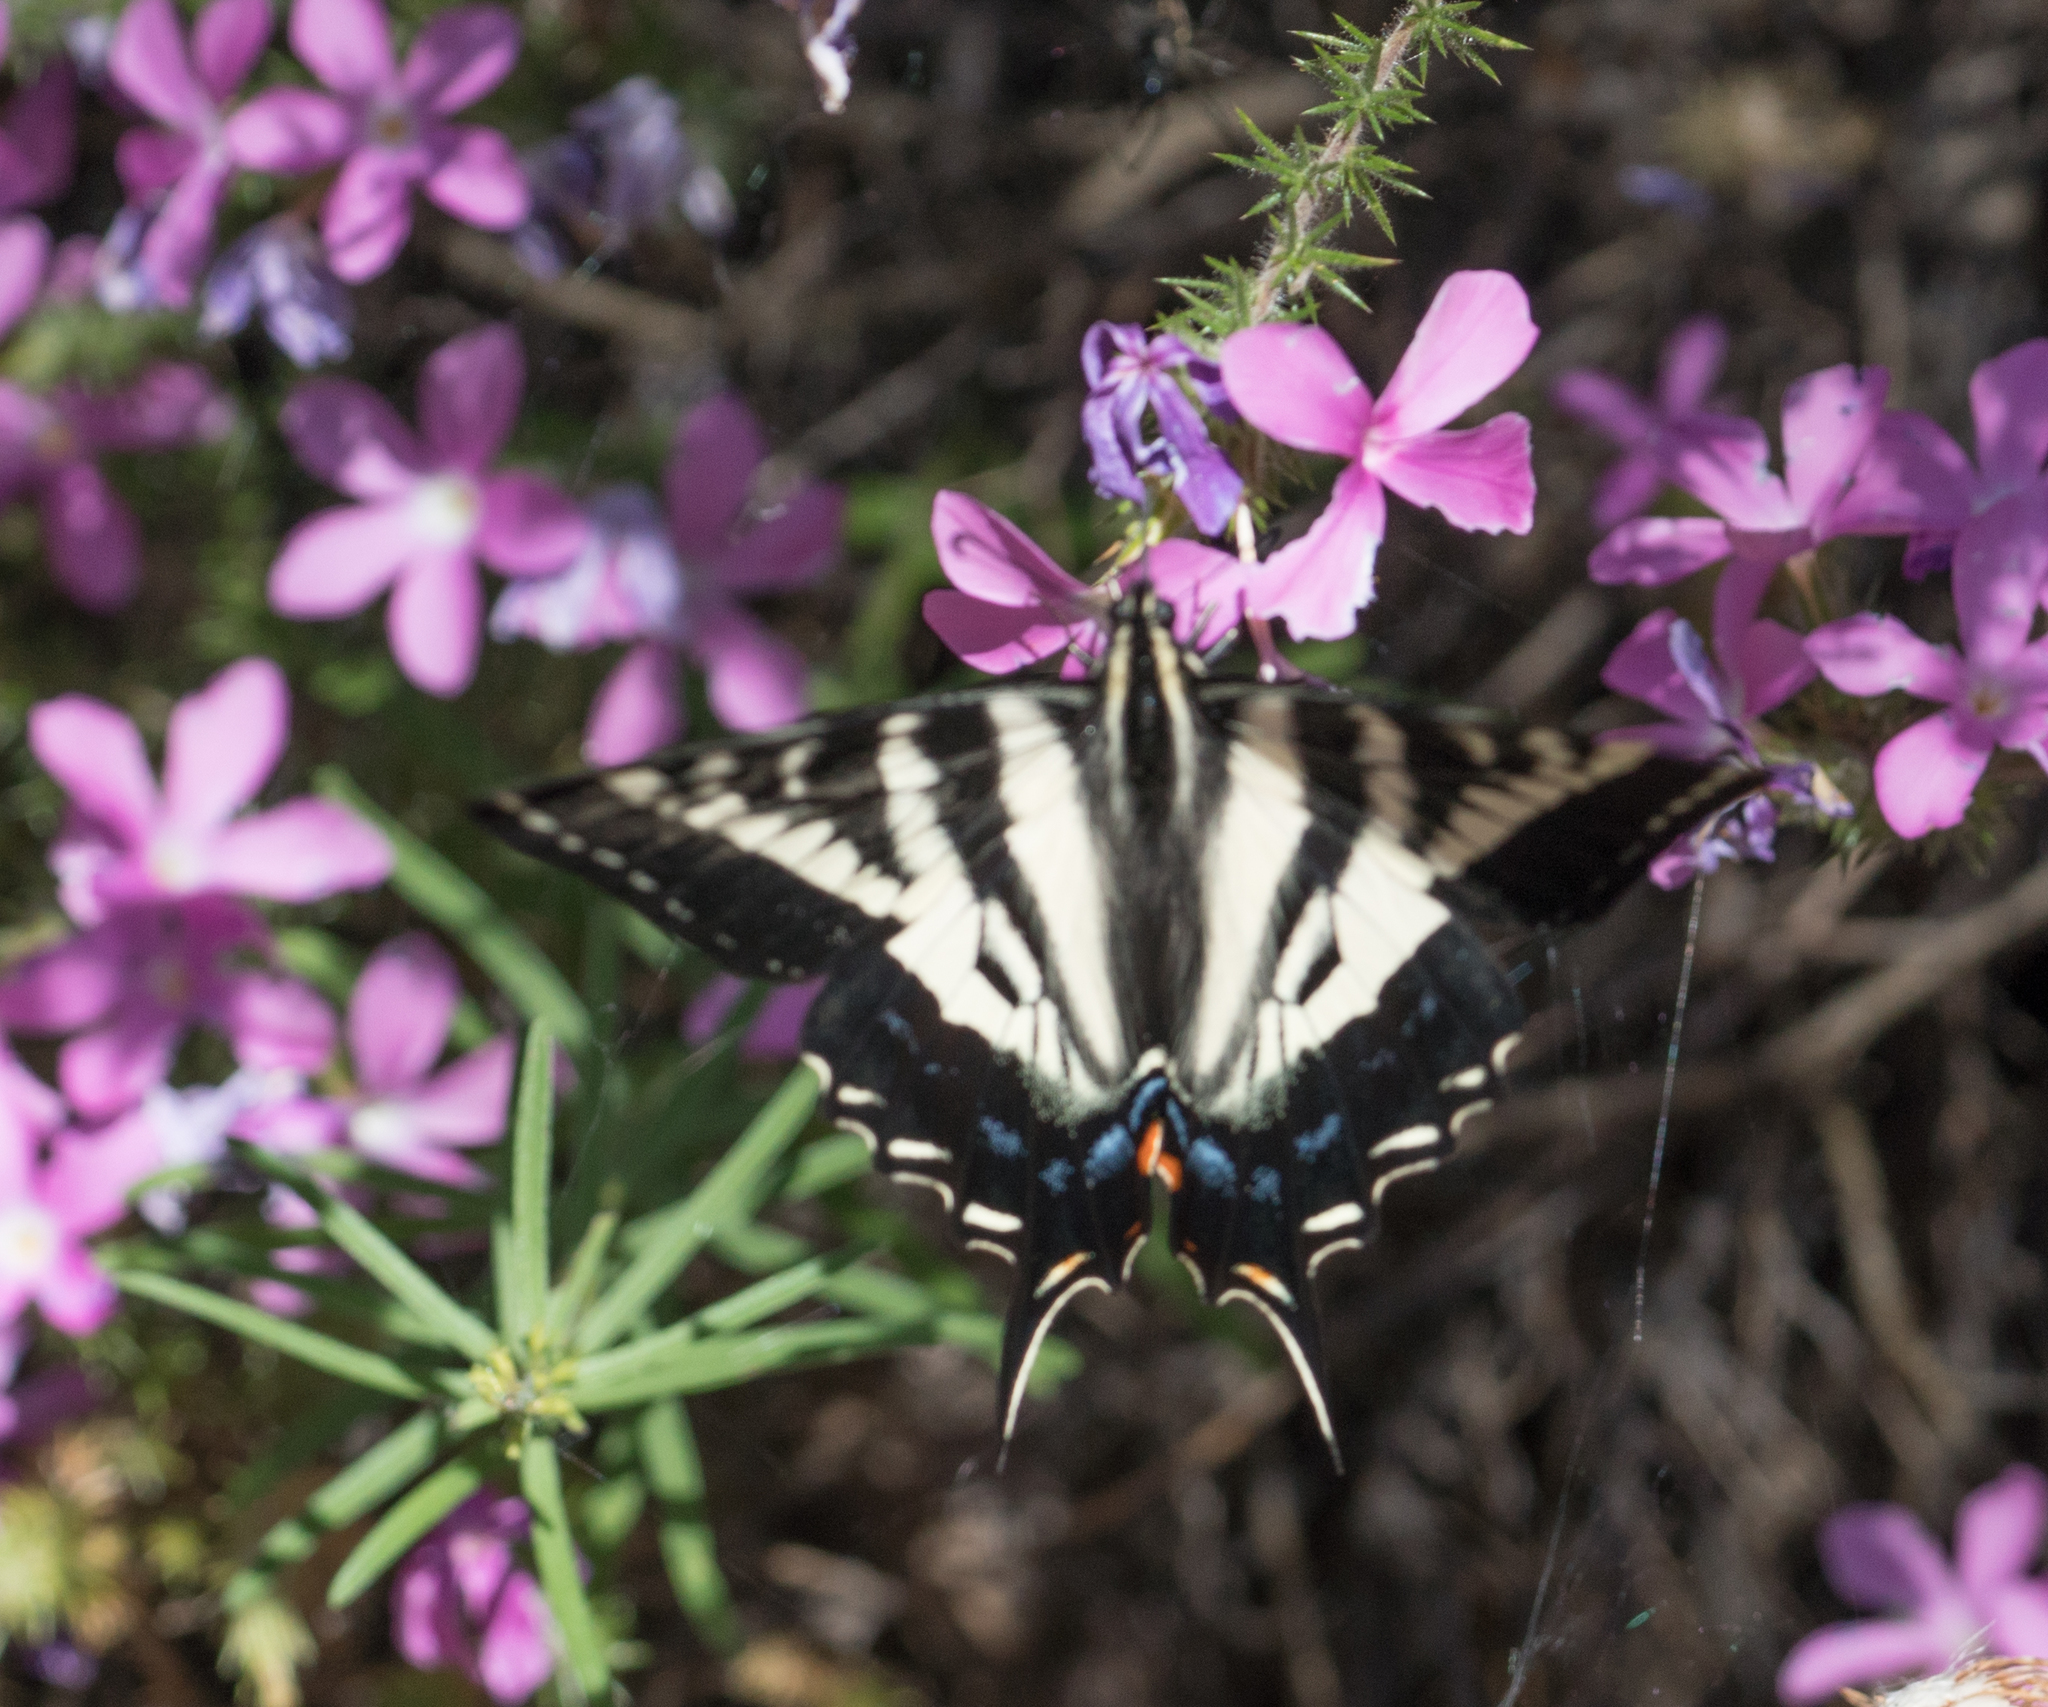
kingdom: Animalia
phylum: Arthropoda
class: Insecta
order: Lepidoptera
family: Papilionidae
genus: Papilio
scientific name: Papilio eurymedon
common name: Pale tiger swallowtail
